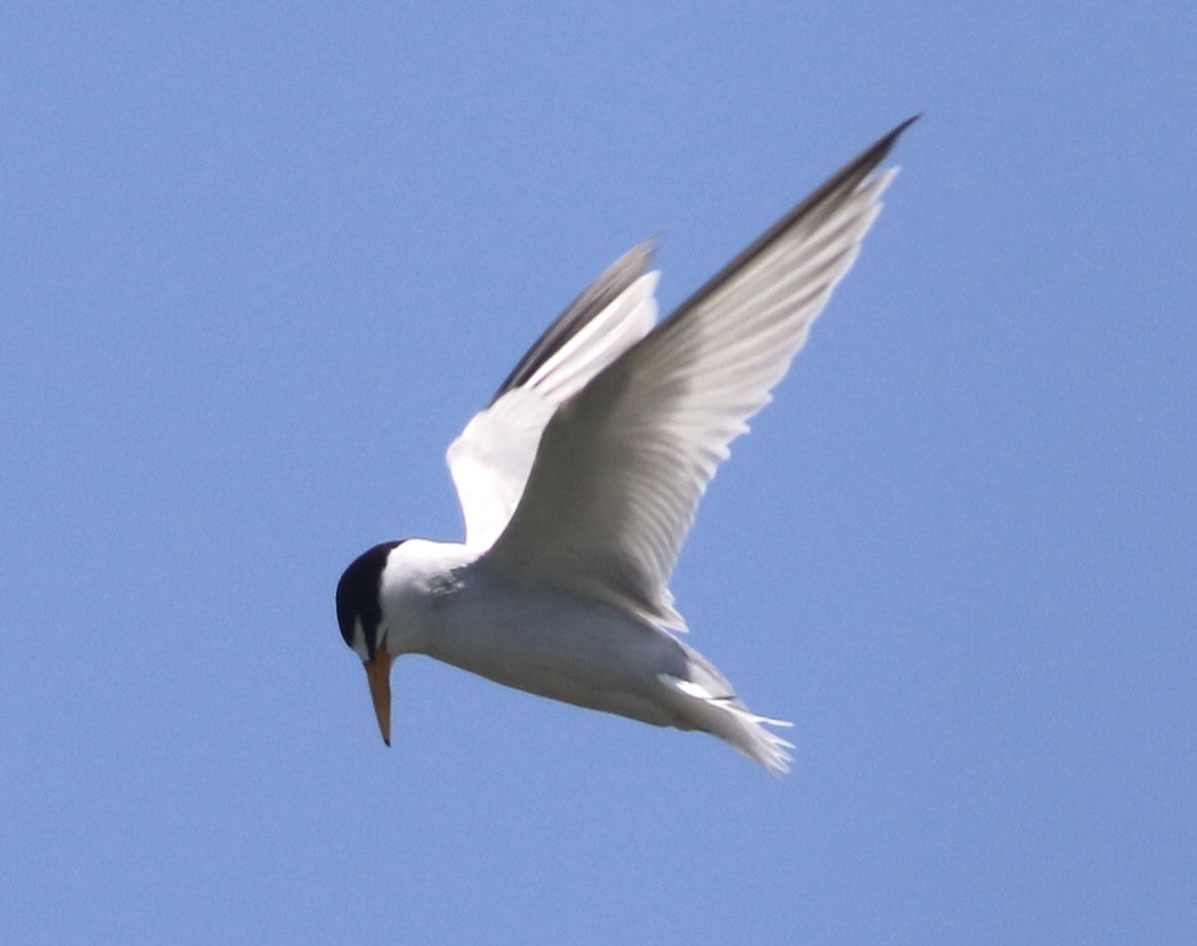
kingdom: Animalia
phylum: Chordata
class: Aves
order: Charadriiformes
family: Laridae
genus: Sternula
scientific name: Sternula antillarum
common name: Least tern
